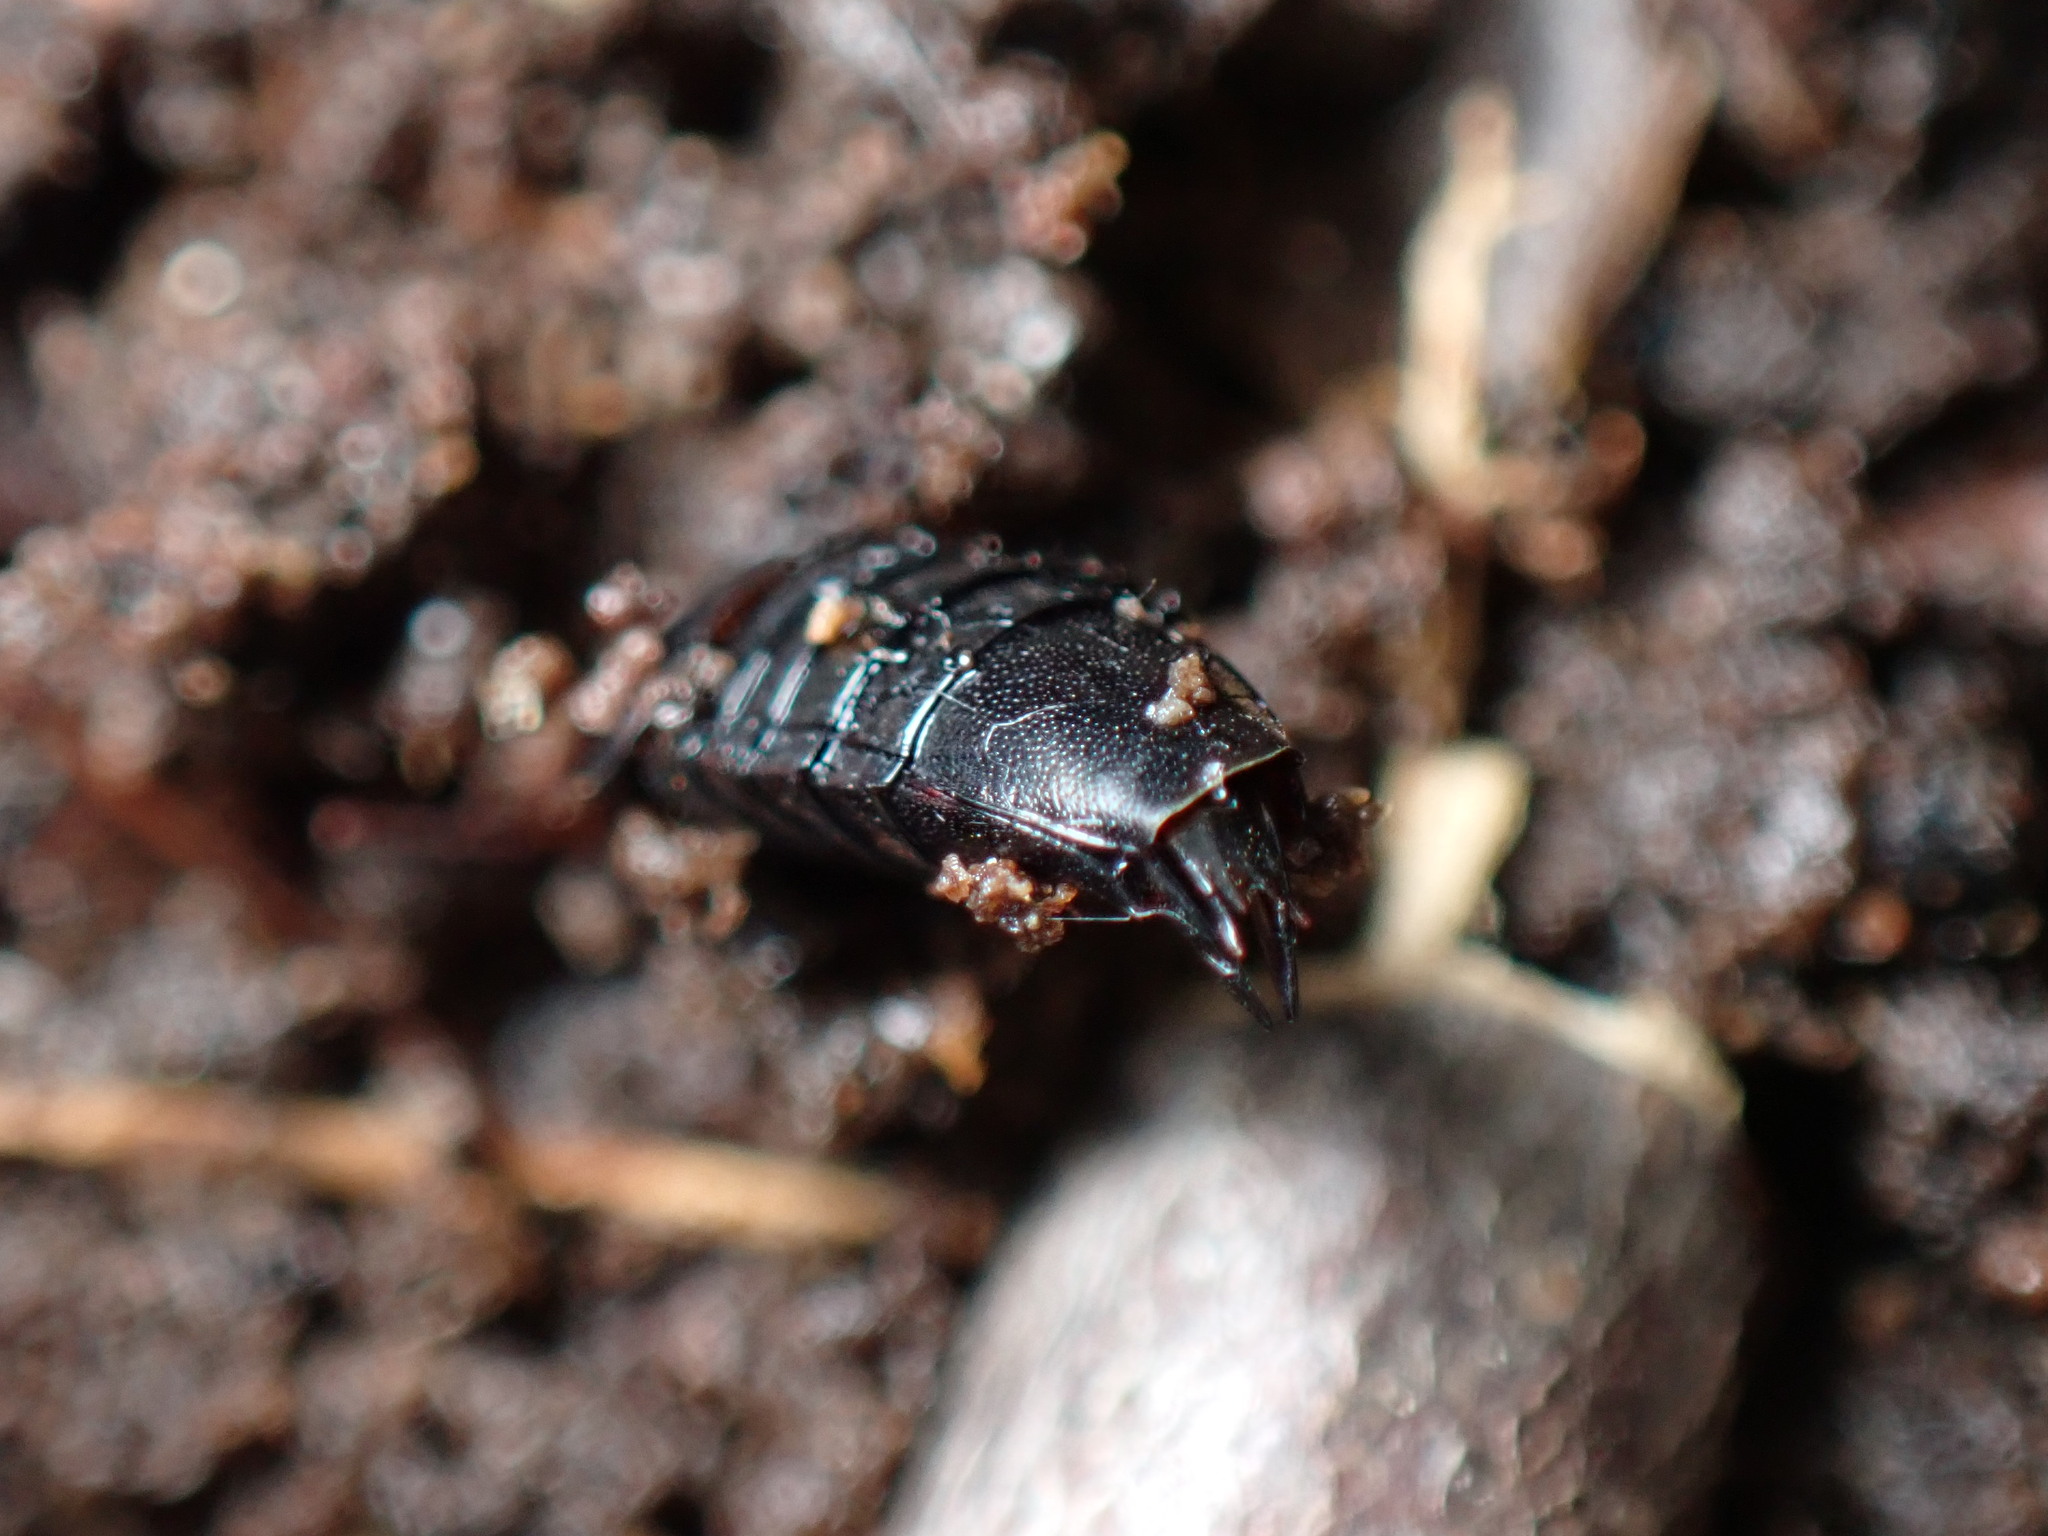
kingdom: Animalia
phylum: Arthropoda
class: Insecta
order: Coleoptera
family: Staphylinidae
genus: Tachinus
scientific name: Tachinus fimbriatus
